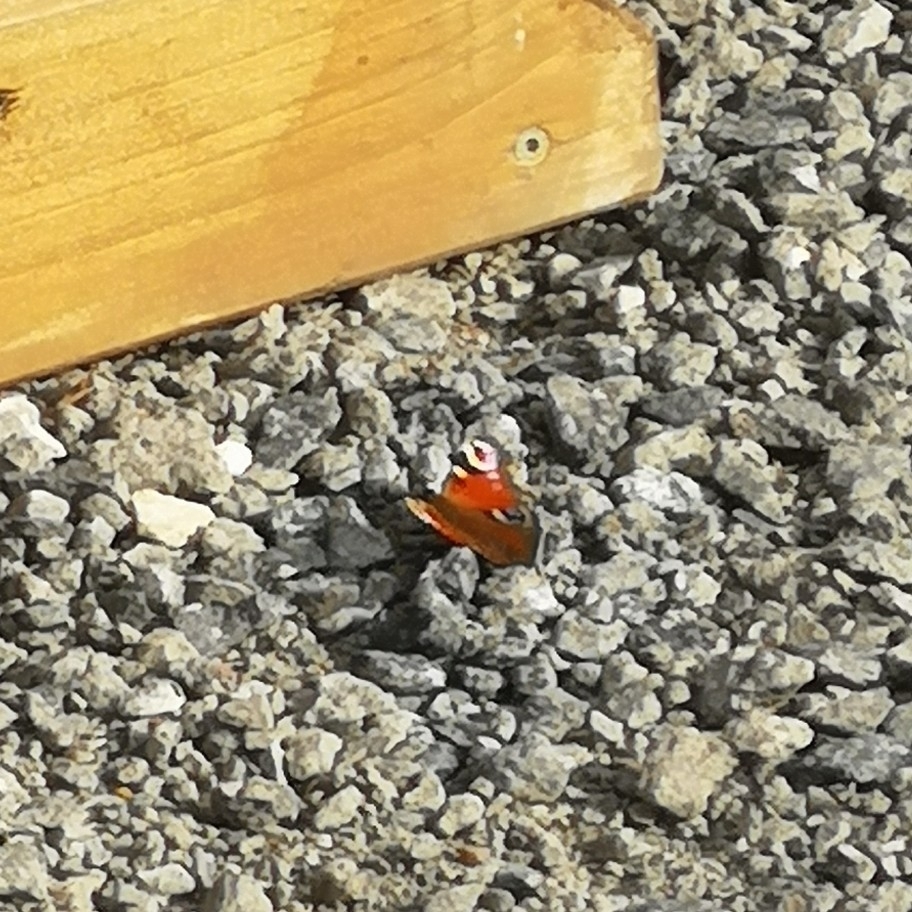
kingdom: Animalia
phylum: Arthropoda
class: Insecta
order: Lepidoptera
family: Nymphalidae
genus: Aglais
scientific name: Aglais io
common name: Peacock
